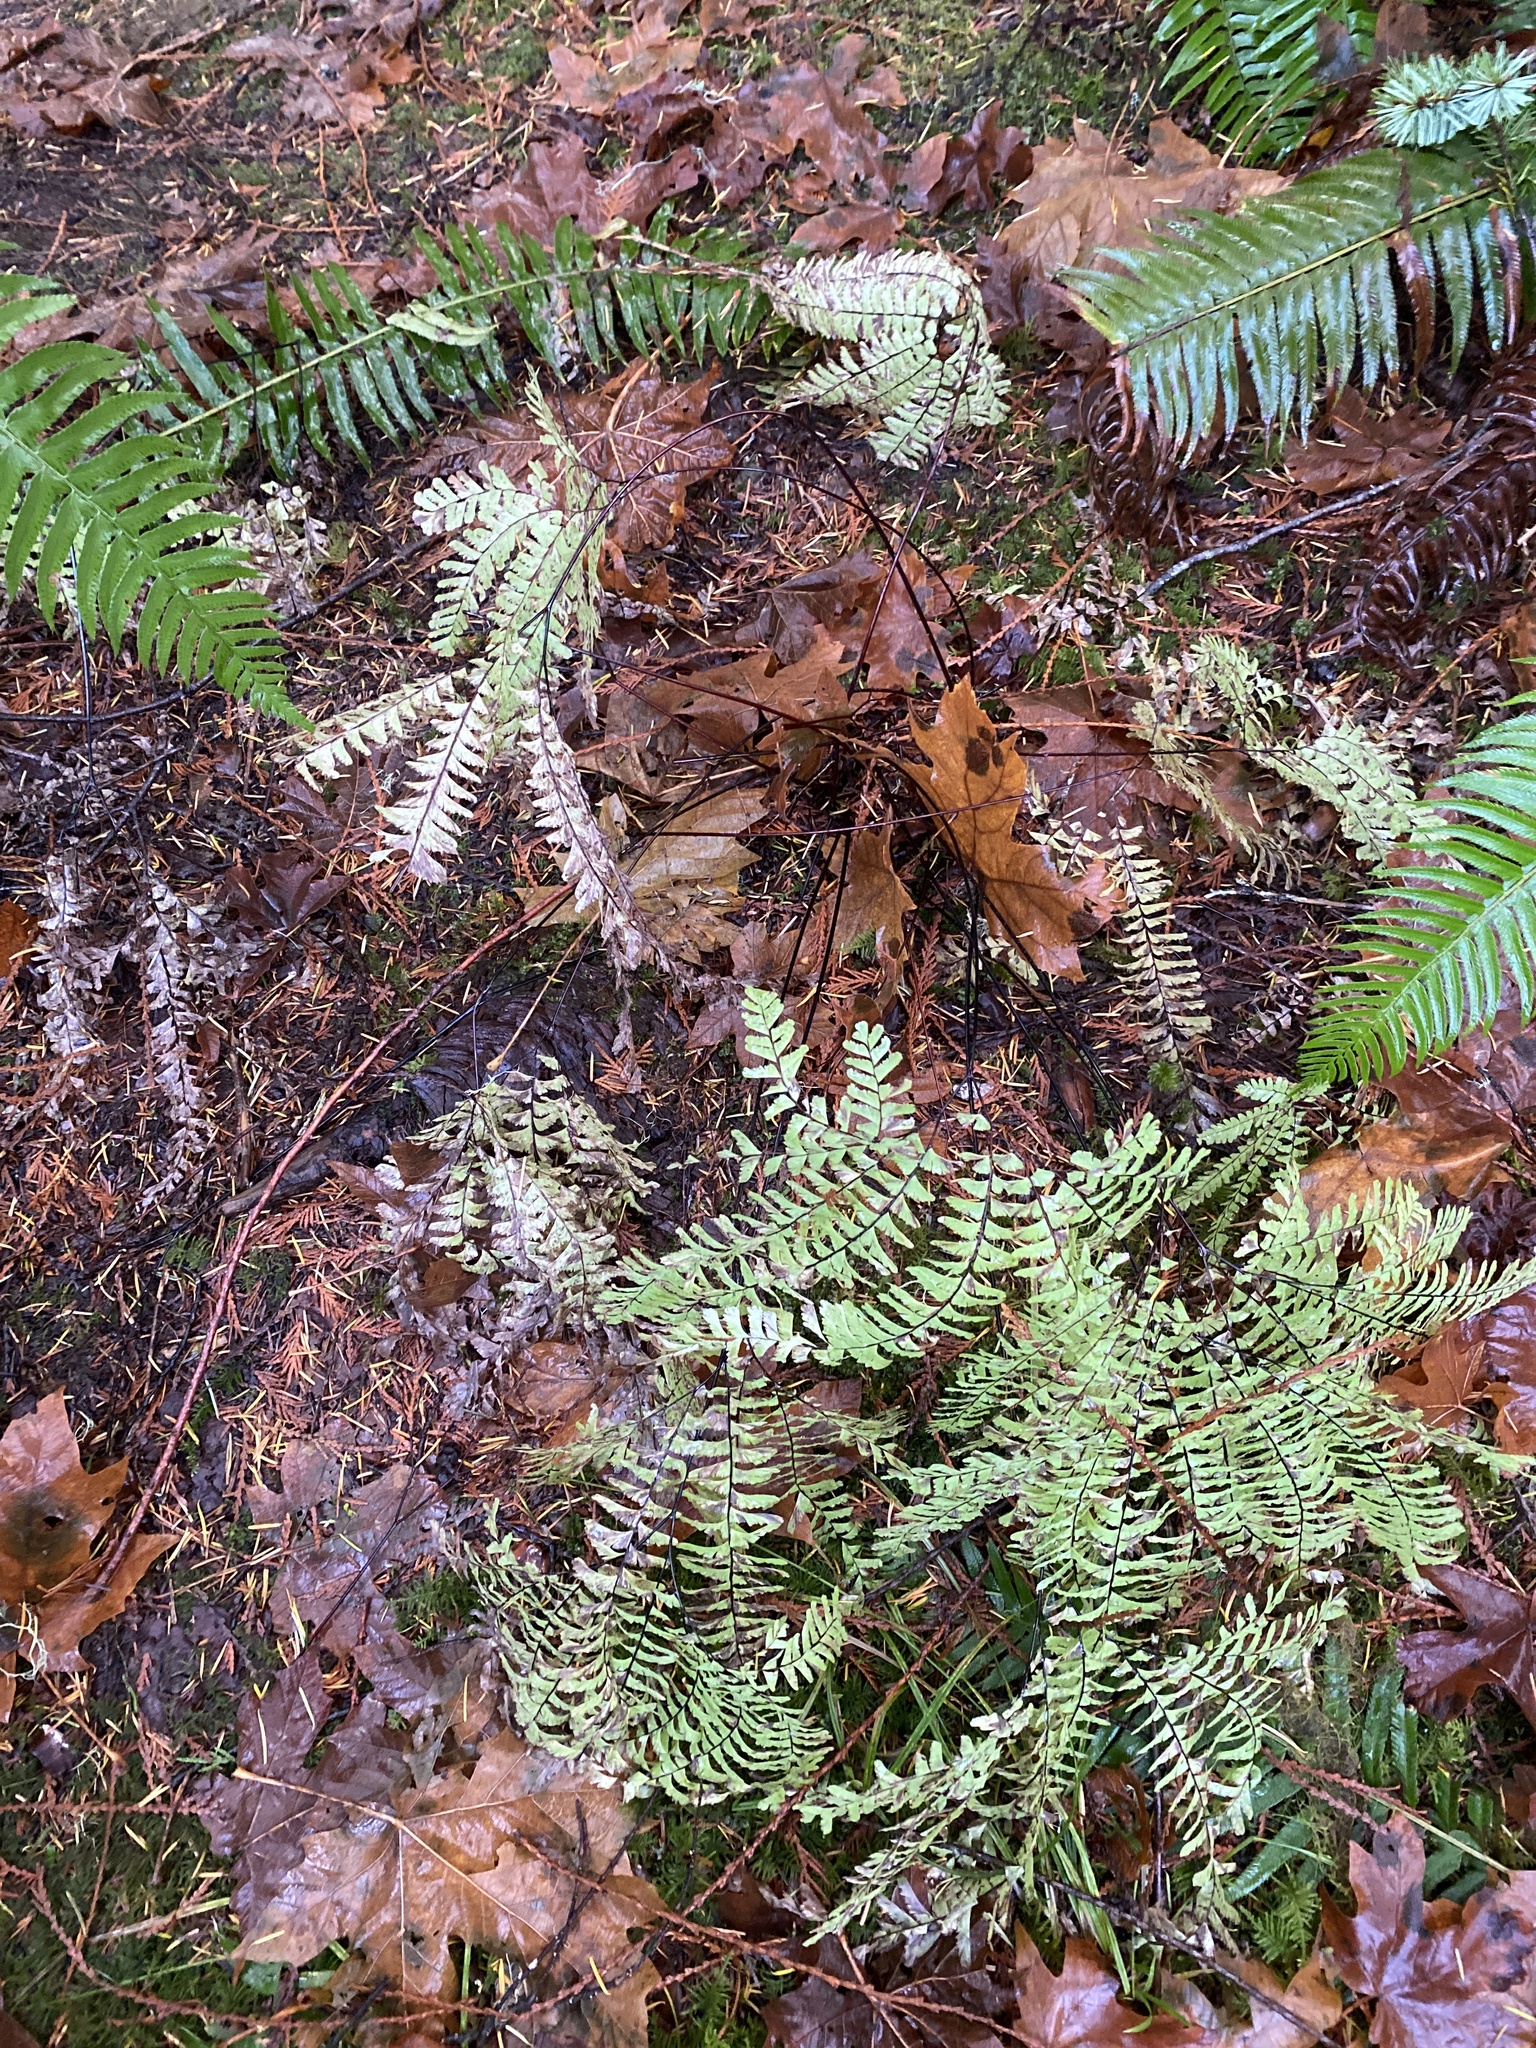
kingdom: Plantae
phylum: Tracheophyta
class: Polypodiopsida
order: Polypodiales
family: Pteridaceae
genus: Adiantum
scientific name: Adiantum aleuticum
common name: Aleutian maidenhair fern
